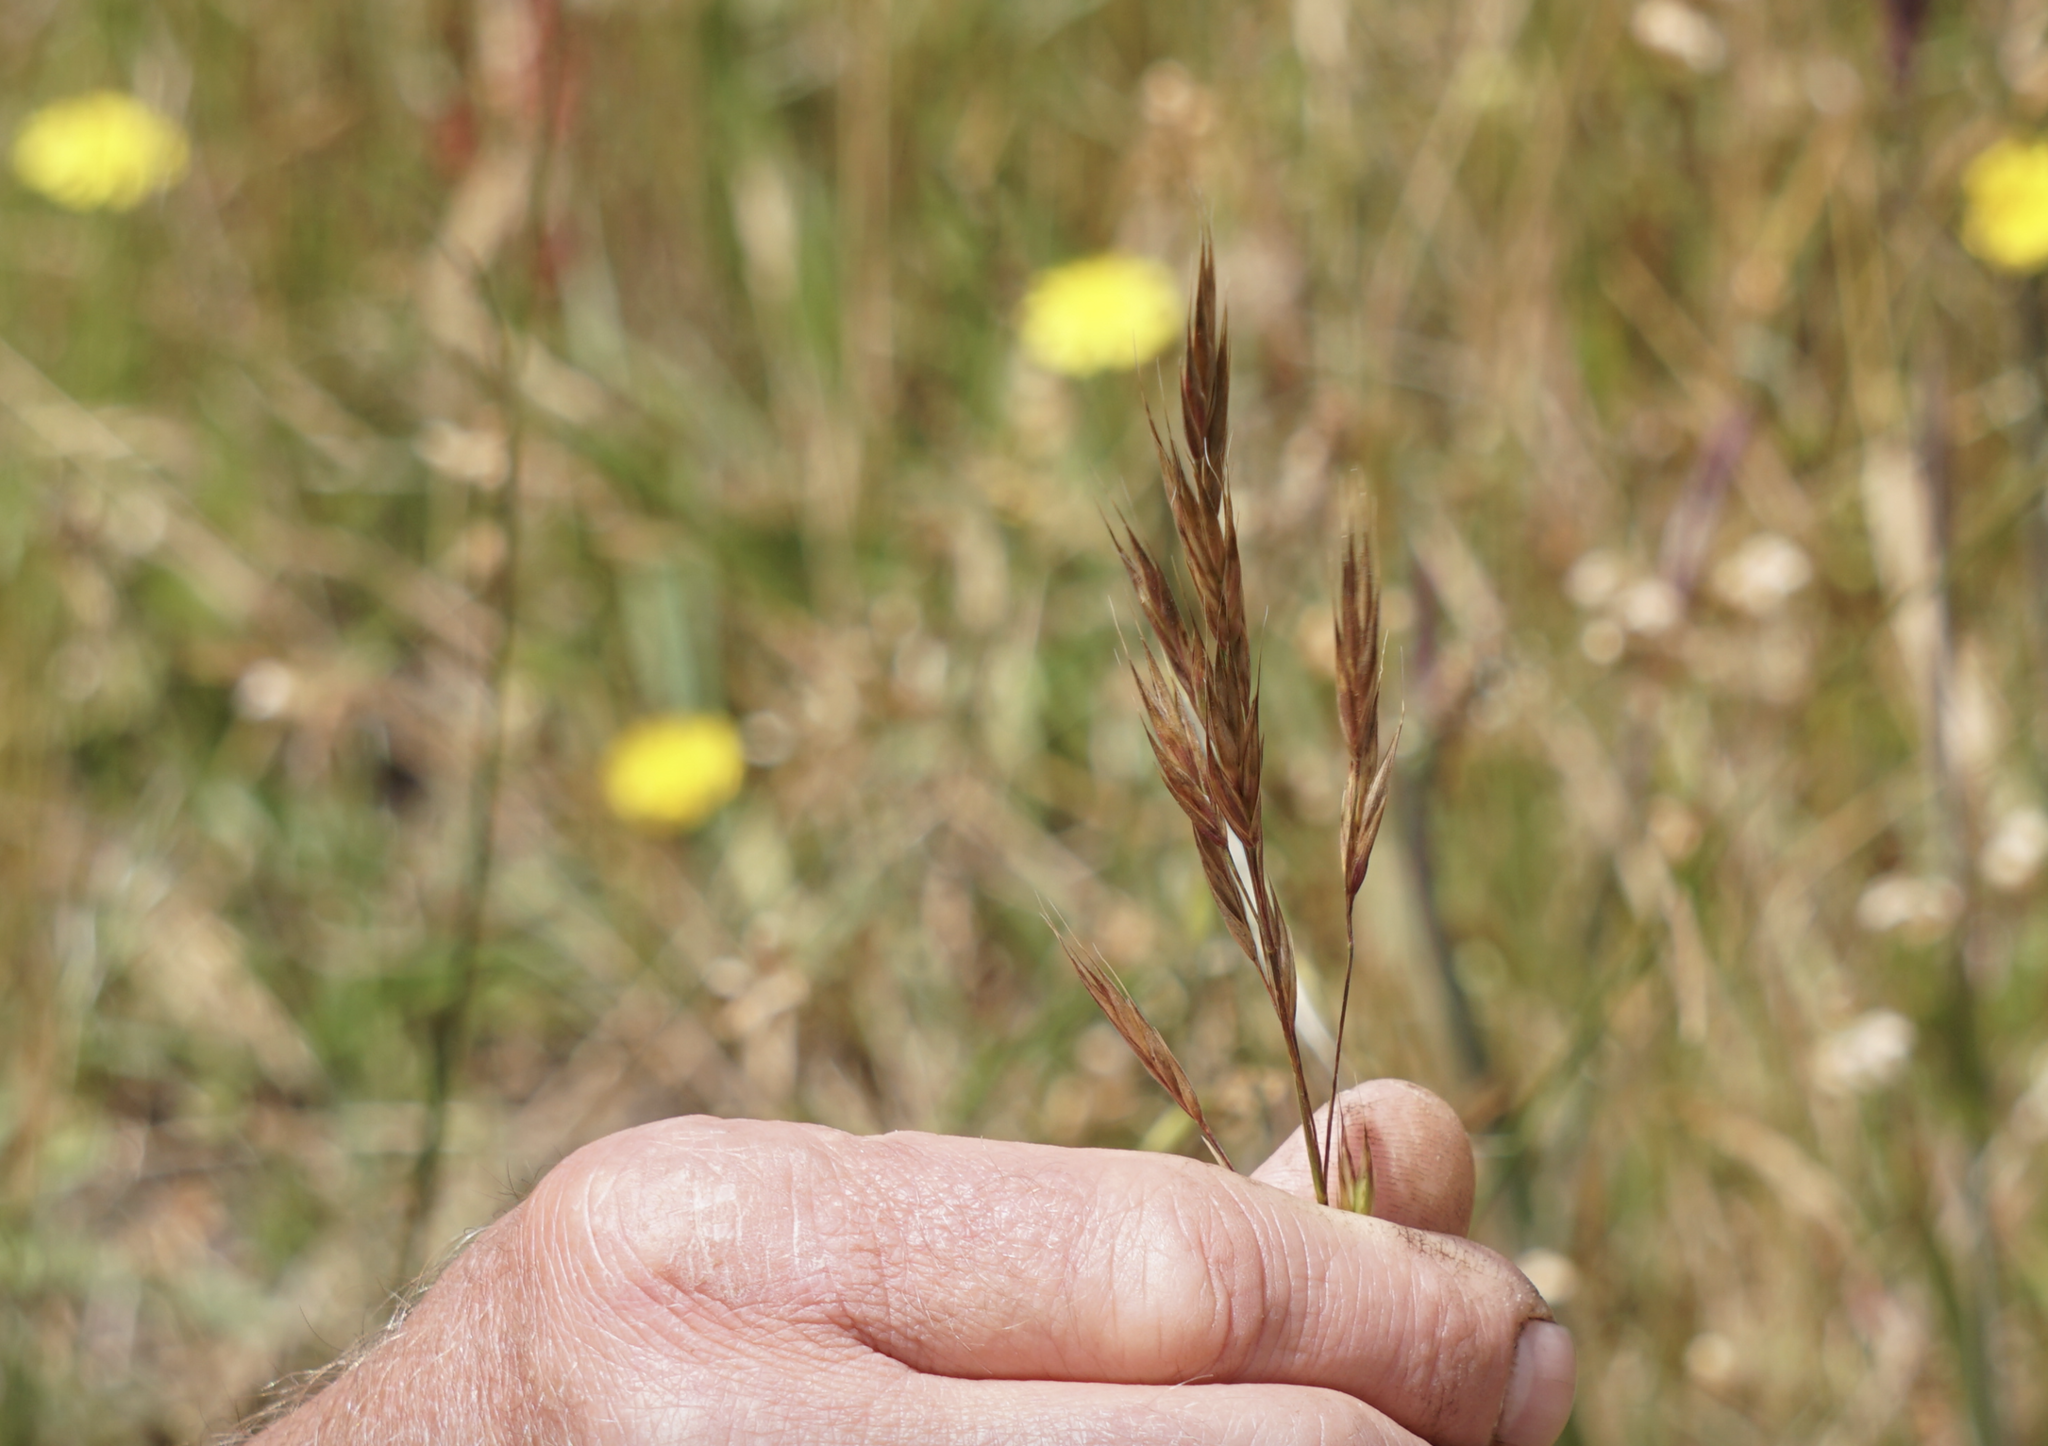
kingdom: Plantae
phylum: Tracheophyta
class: Liliopsida
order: Poales
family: Poaceae
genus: Bromus
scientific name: Bromus carinatus
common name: Mountain brome
